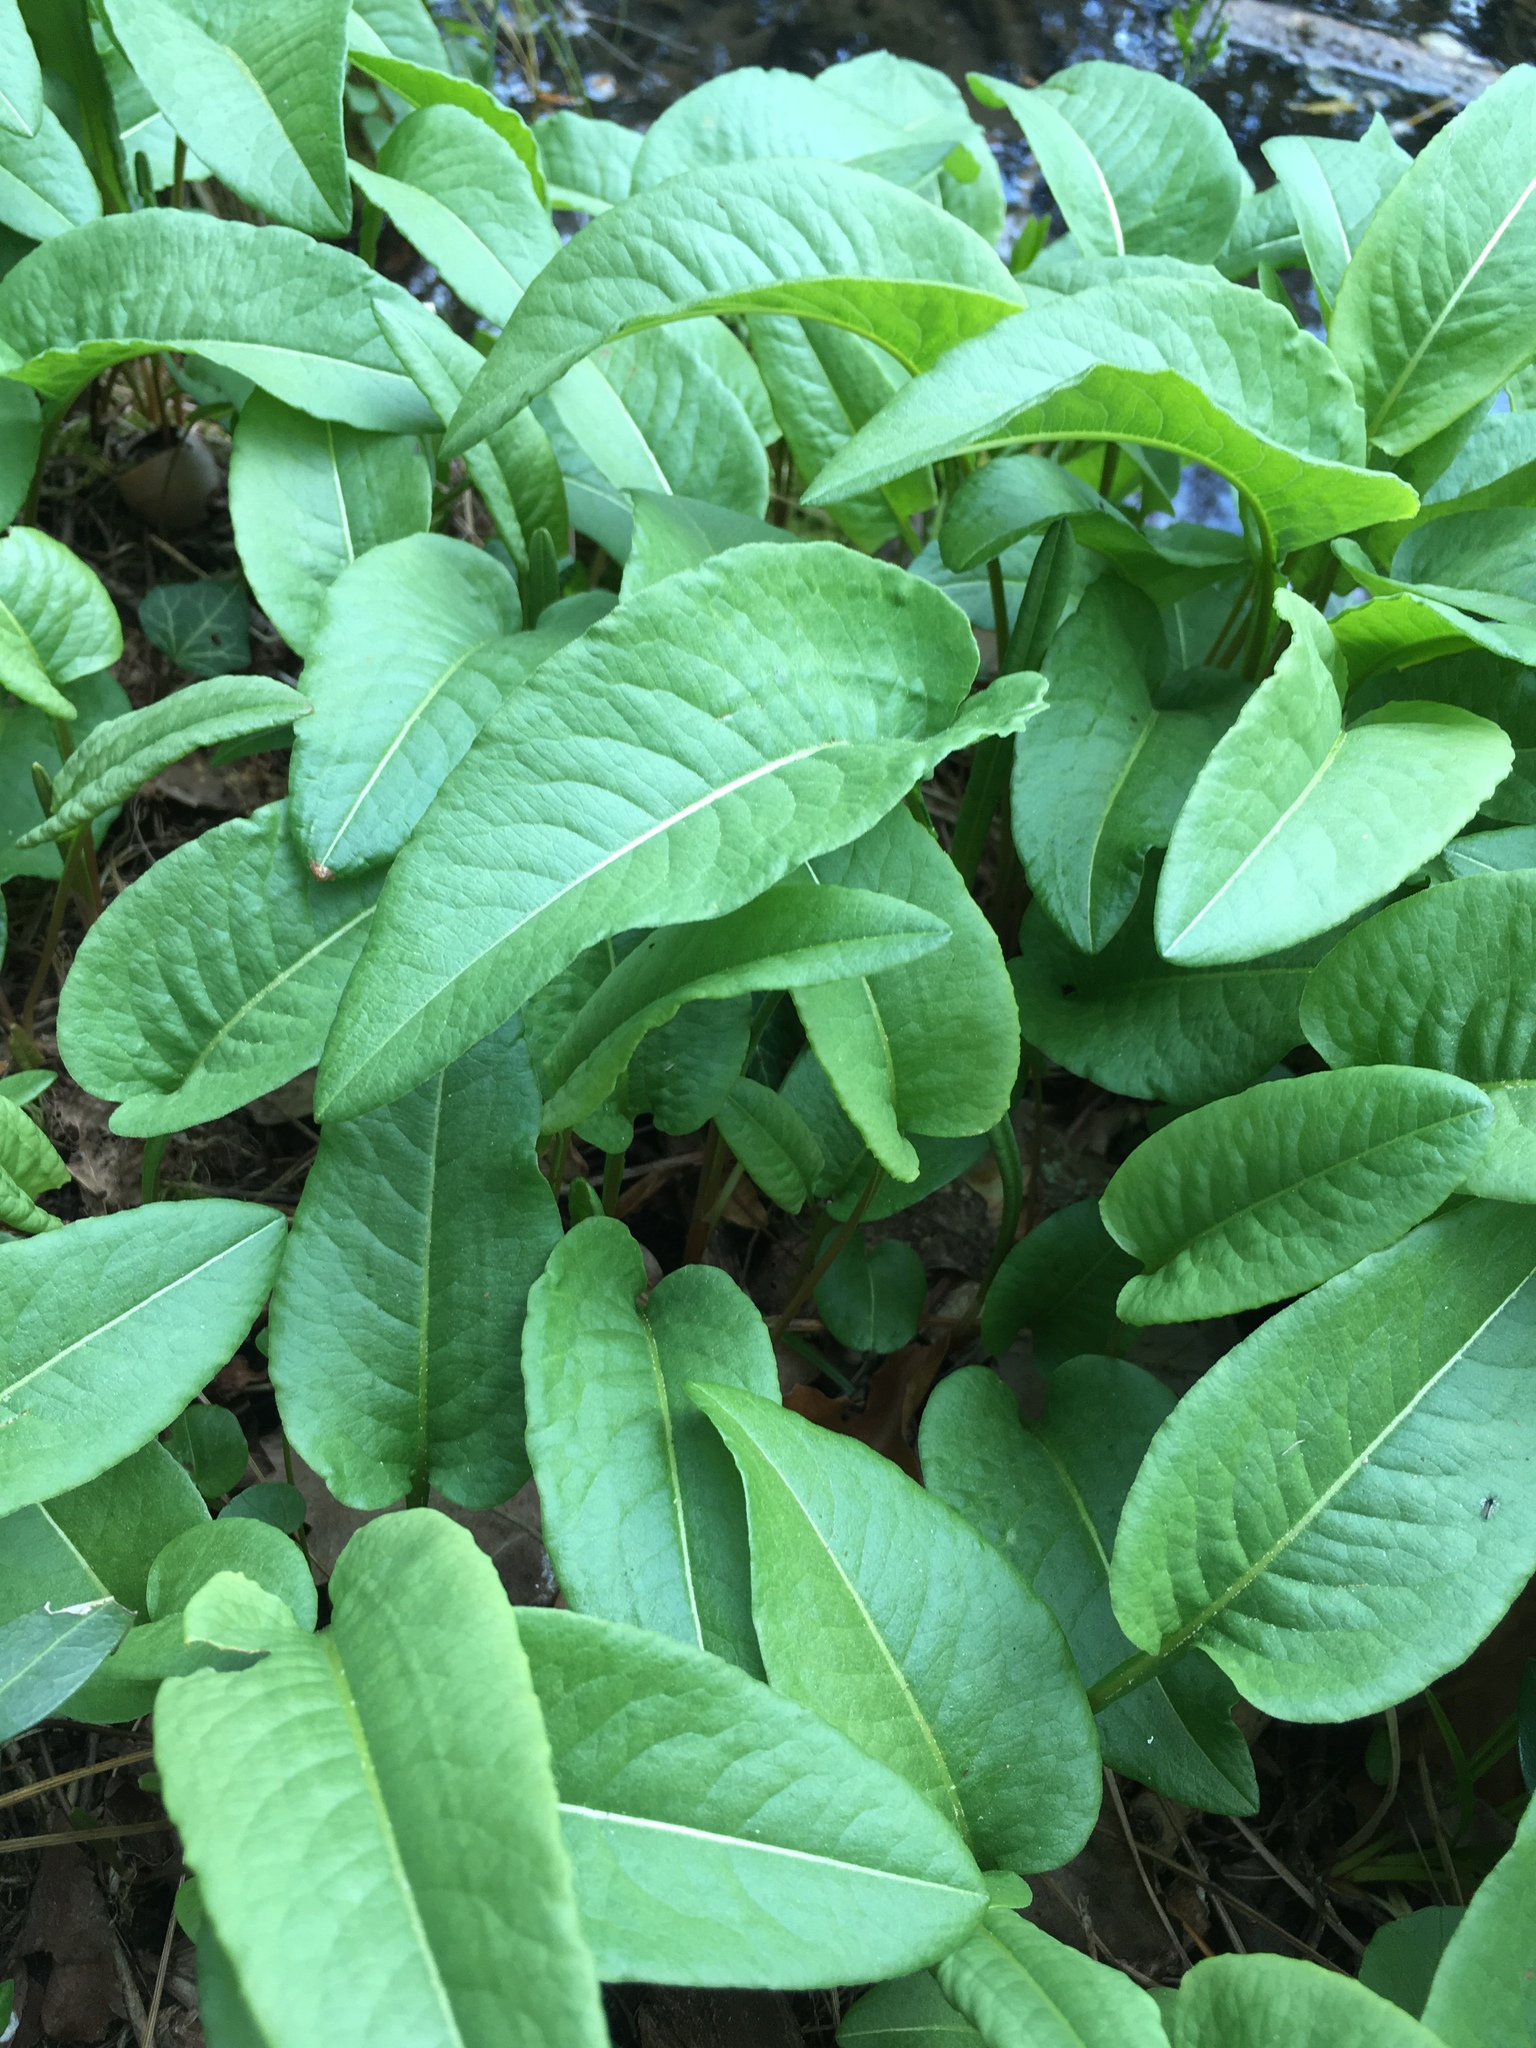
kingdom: Plantae
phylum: Tracheophyta
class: Magnoliopsida
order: Caryophyllales
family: Polygonaceae
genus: Bistorta
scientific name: Bistorta officinalis
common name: Common bistort
